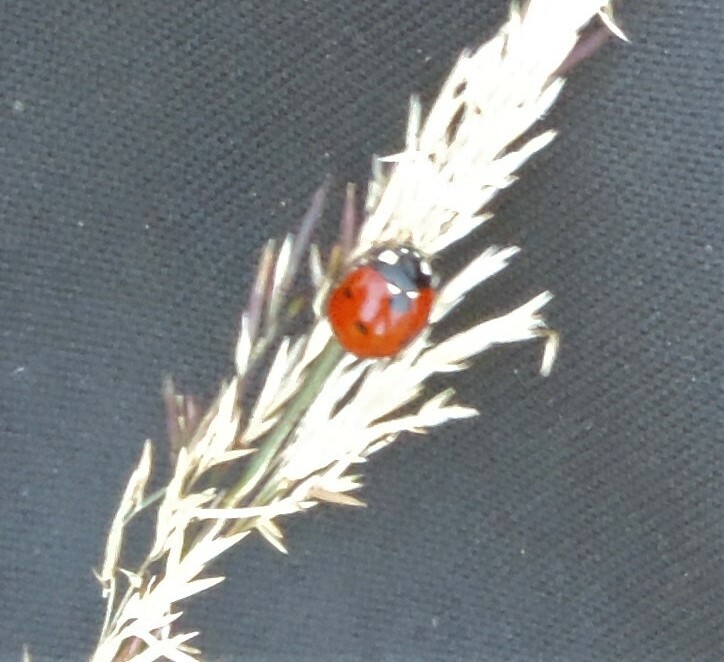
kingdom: Animalia
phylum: Arthropoda
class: Insecta
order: Coleoptera
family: Coccinellidae
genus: Coccinella
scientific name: Coccinella septempunctata
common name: Sevenspotted lady beetle
